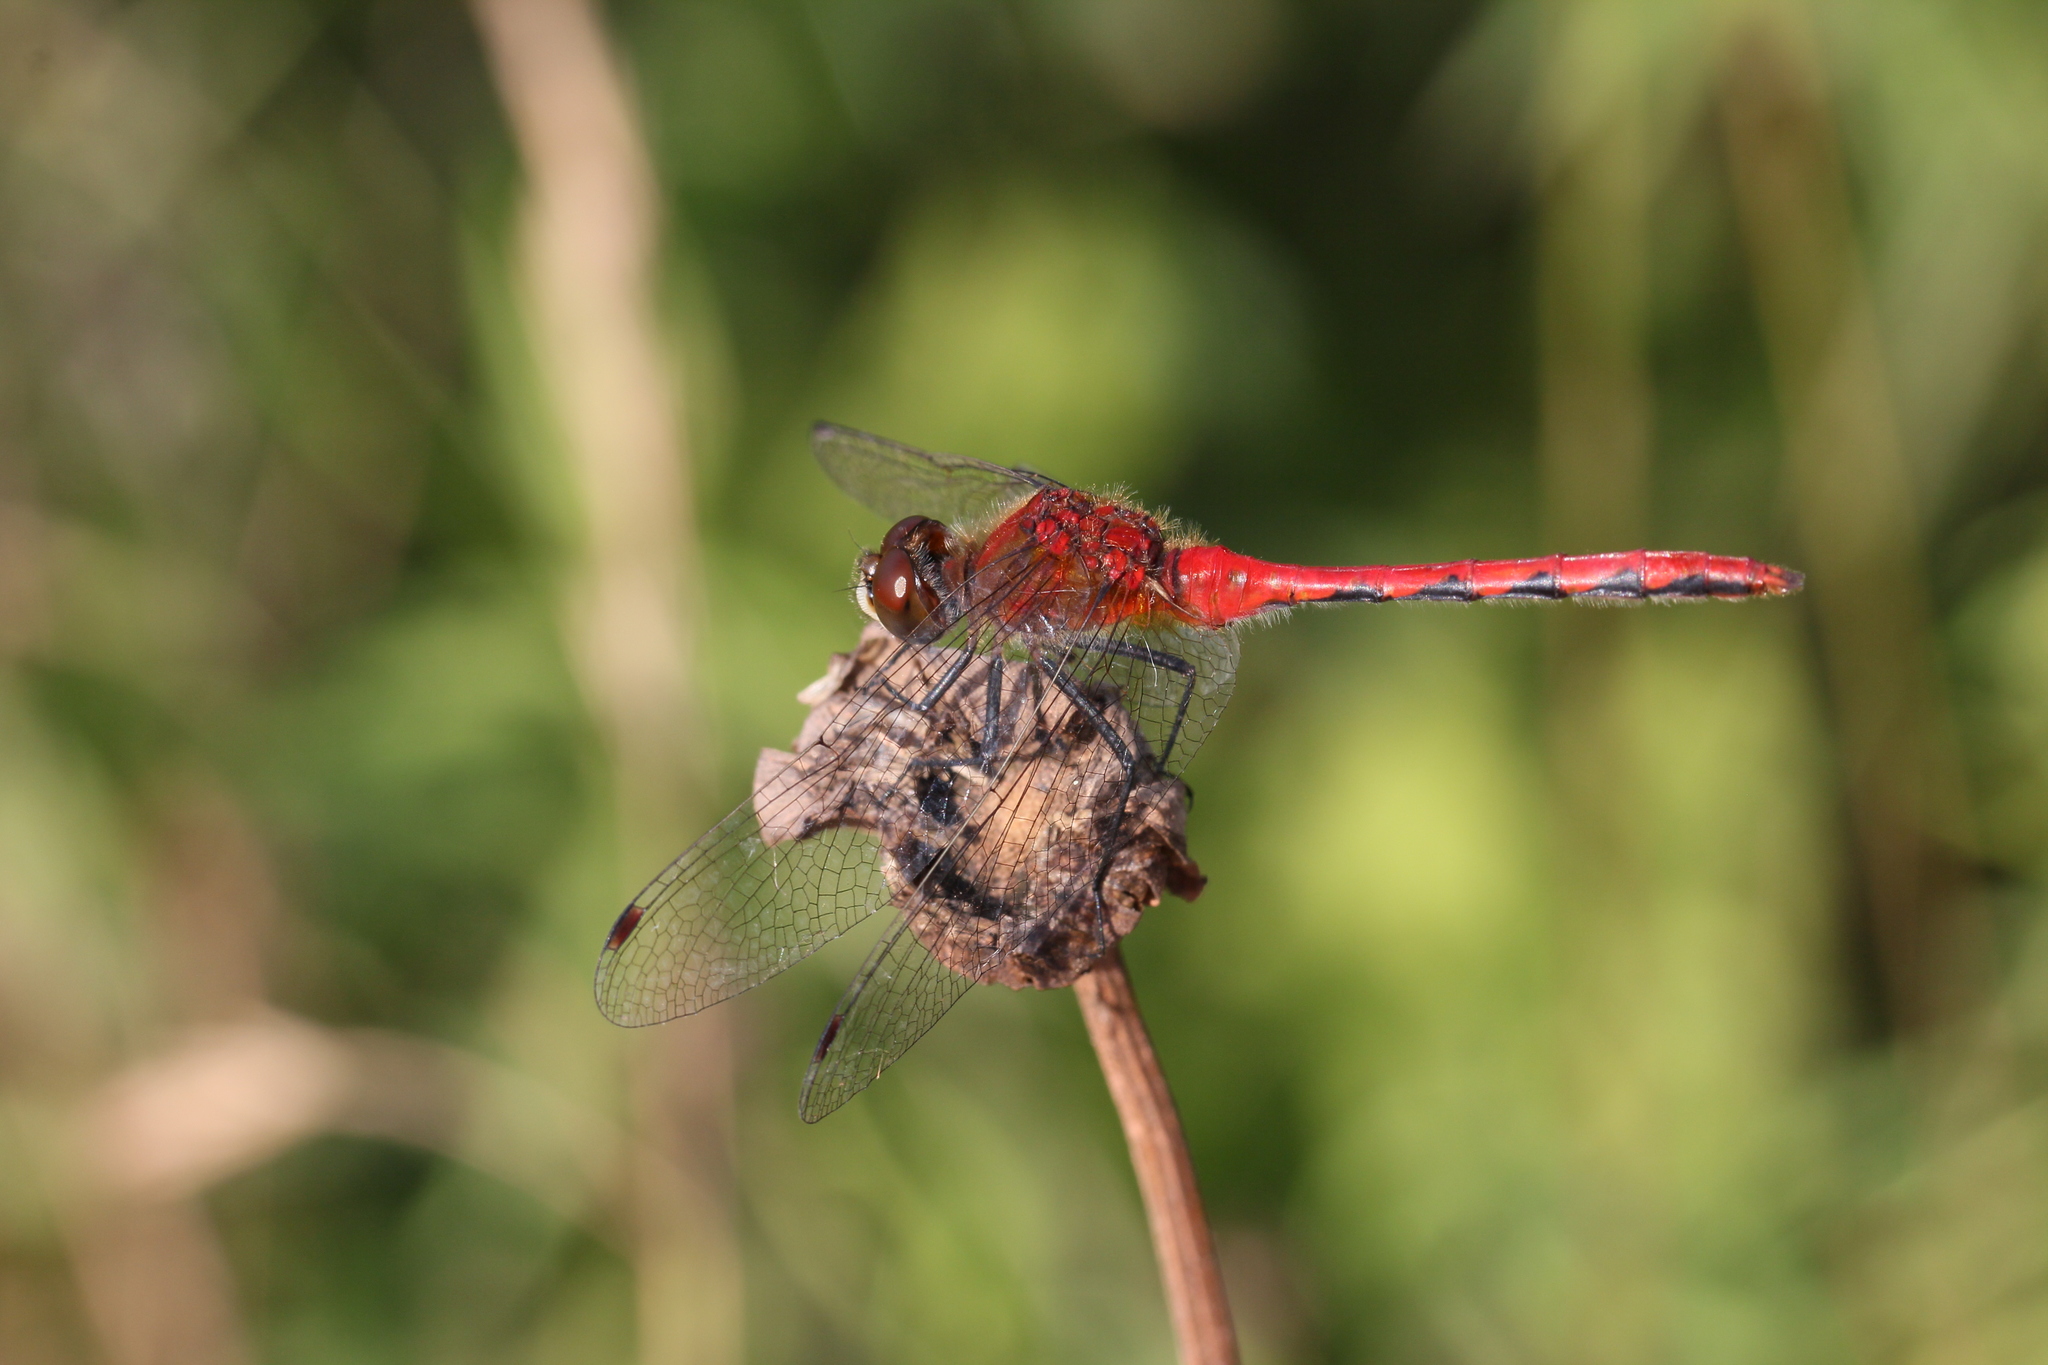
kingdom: Animalia
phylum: Arthropoda
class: Insecta
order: Odonata
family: Libellulidae
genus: Sympetrum
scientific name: Sympetrum obtrusum
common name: White-faced meadowhawk
